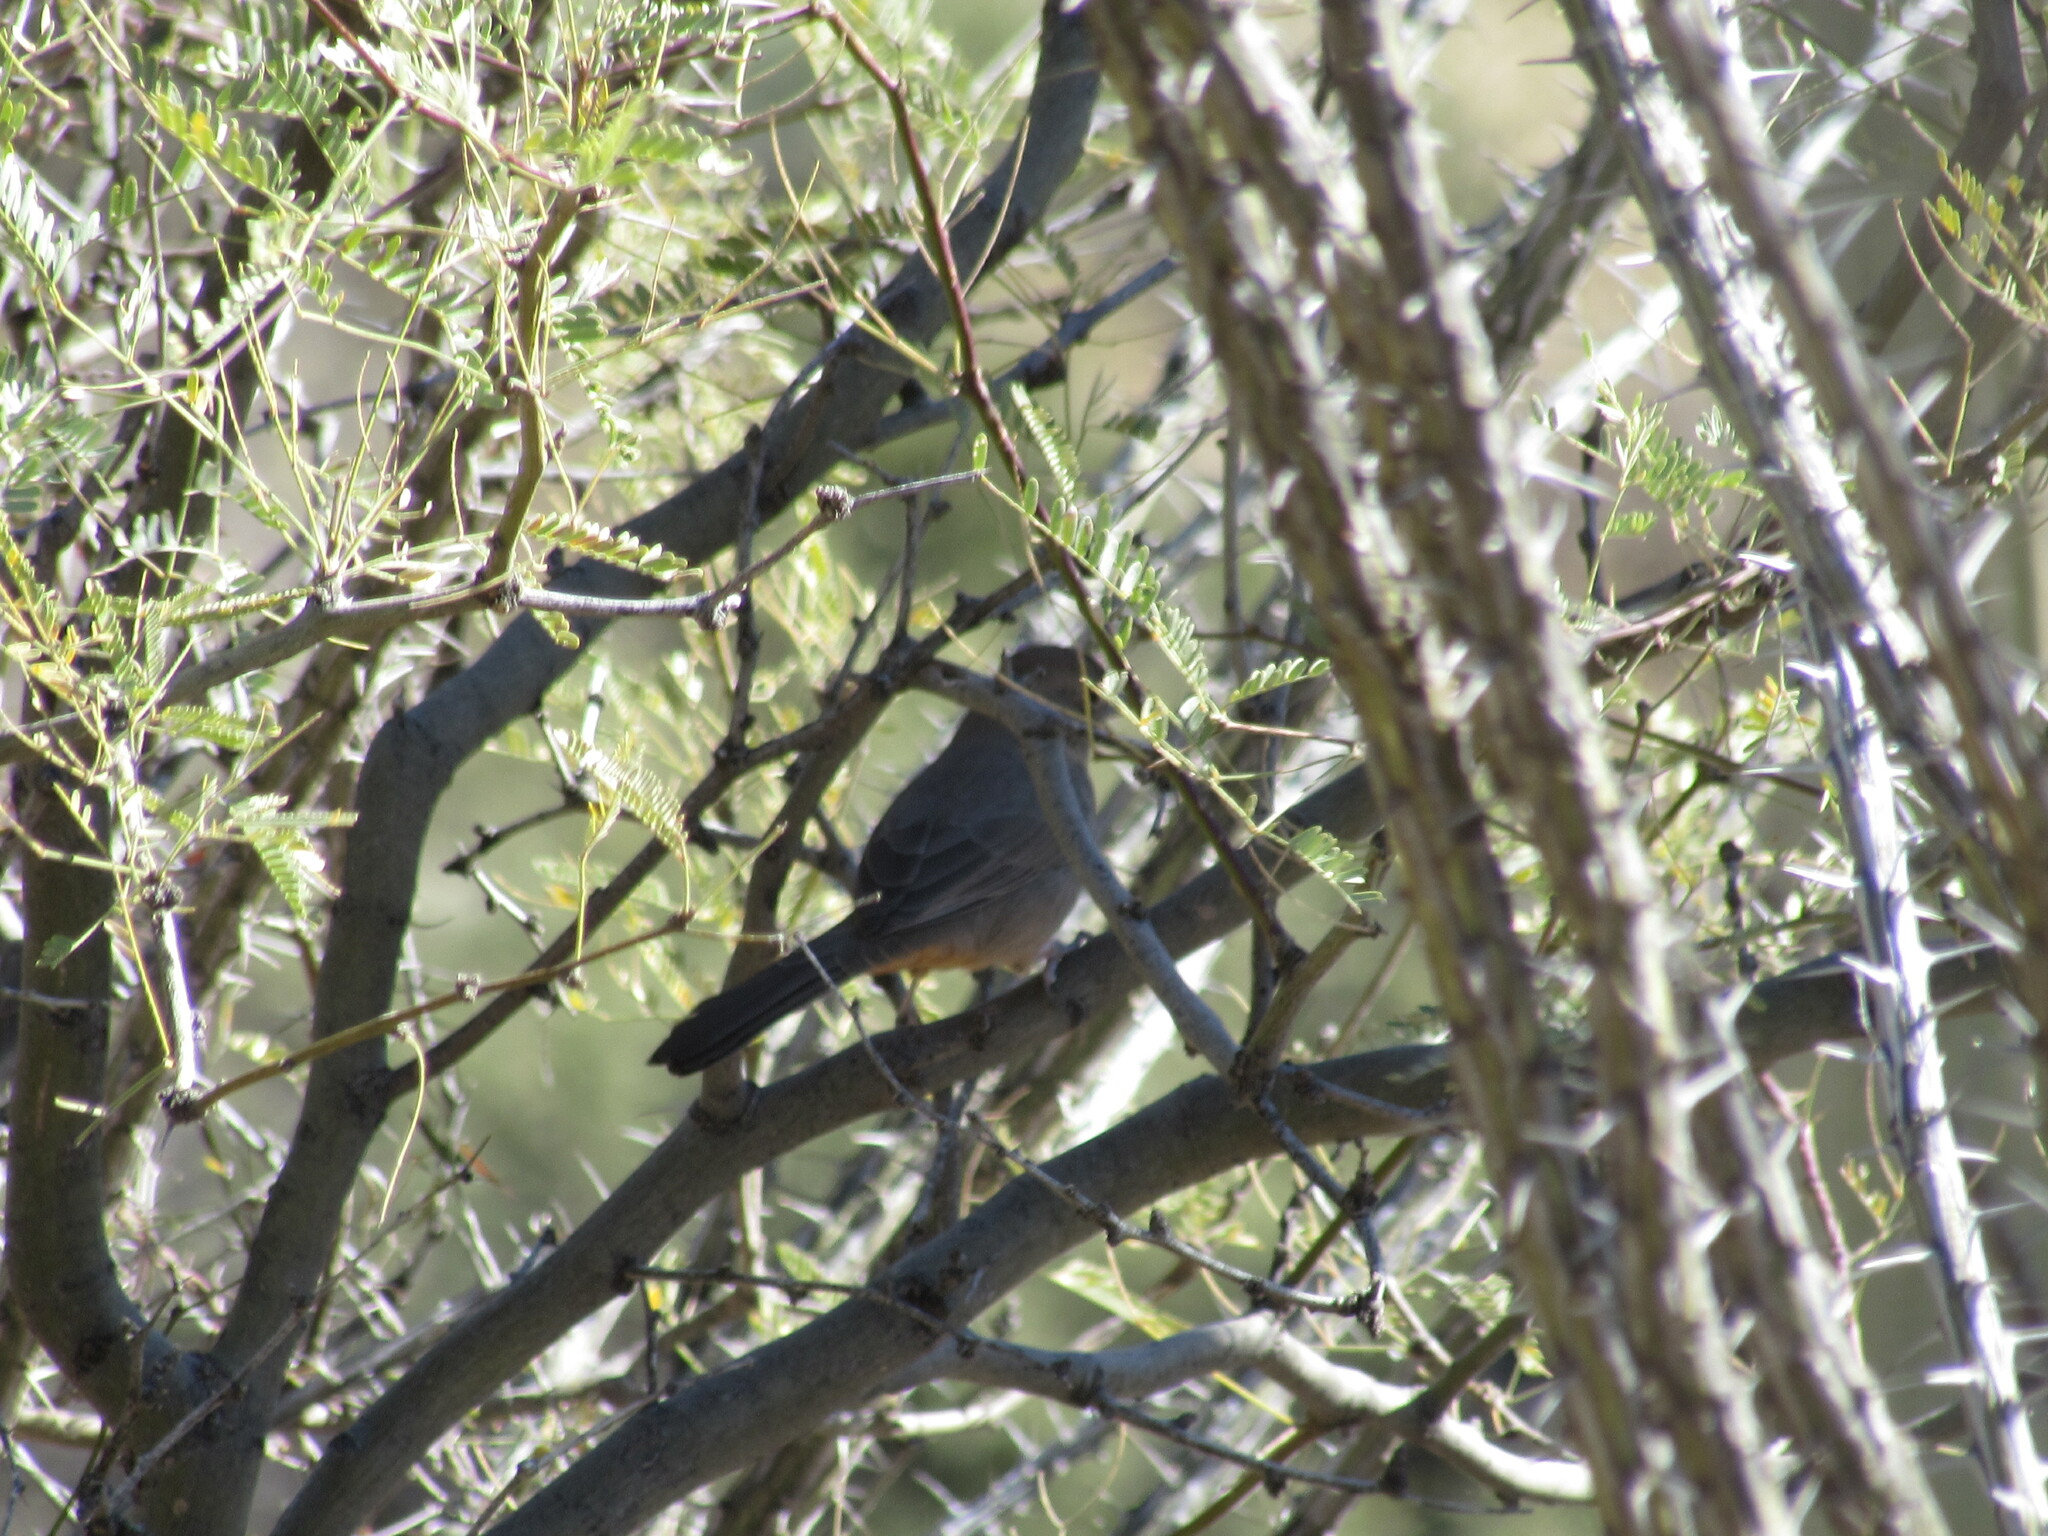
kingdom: Animalia
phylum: Chordata
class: Aves
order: Passeriformes
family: Passerellidae
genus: Melozone
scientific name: Melozone fusca
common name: Canyon towhee
